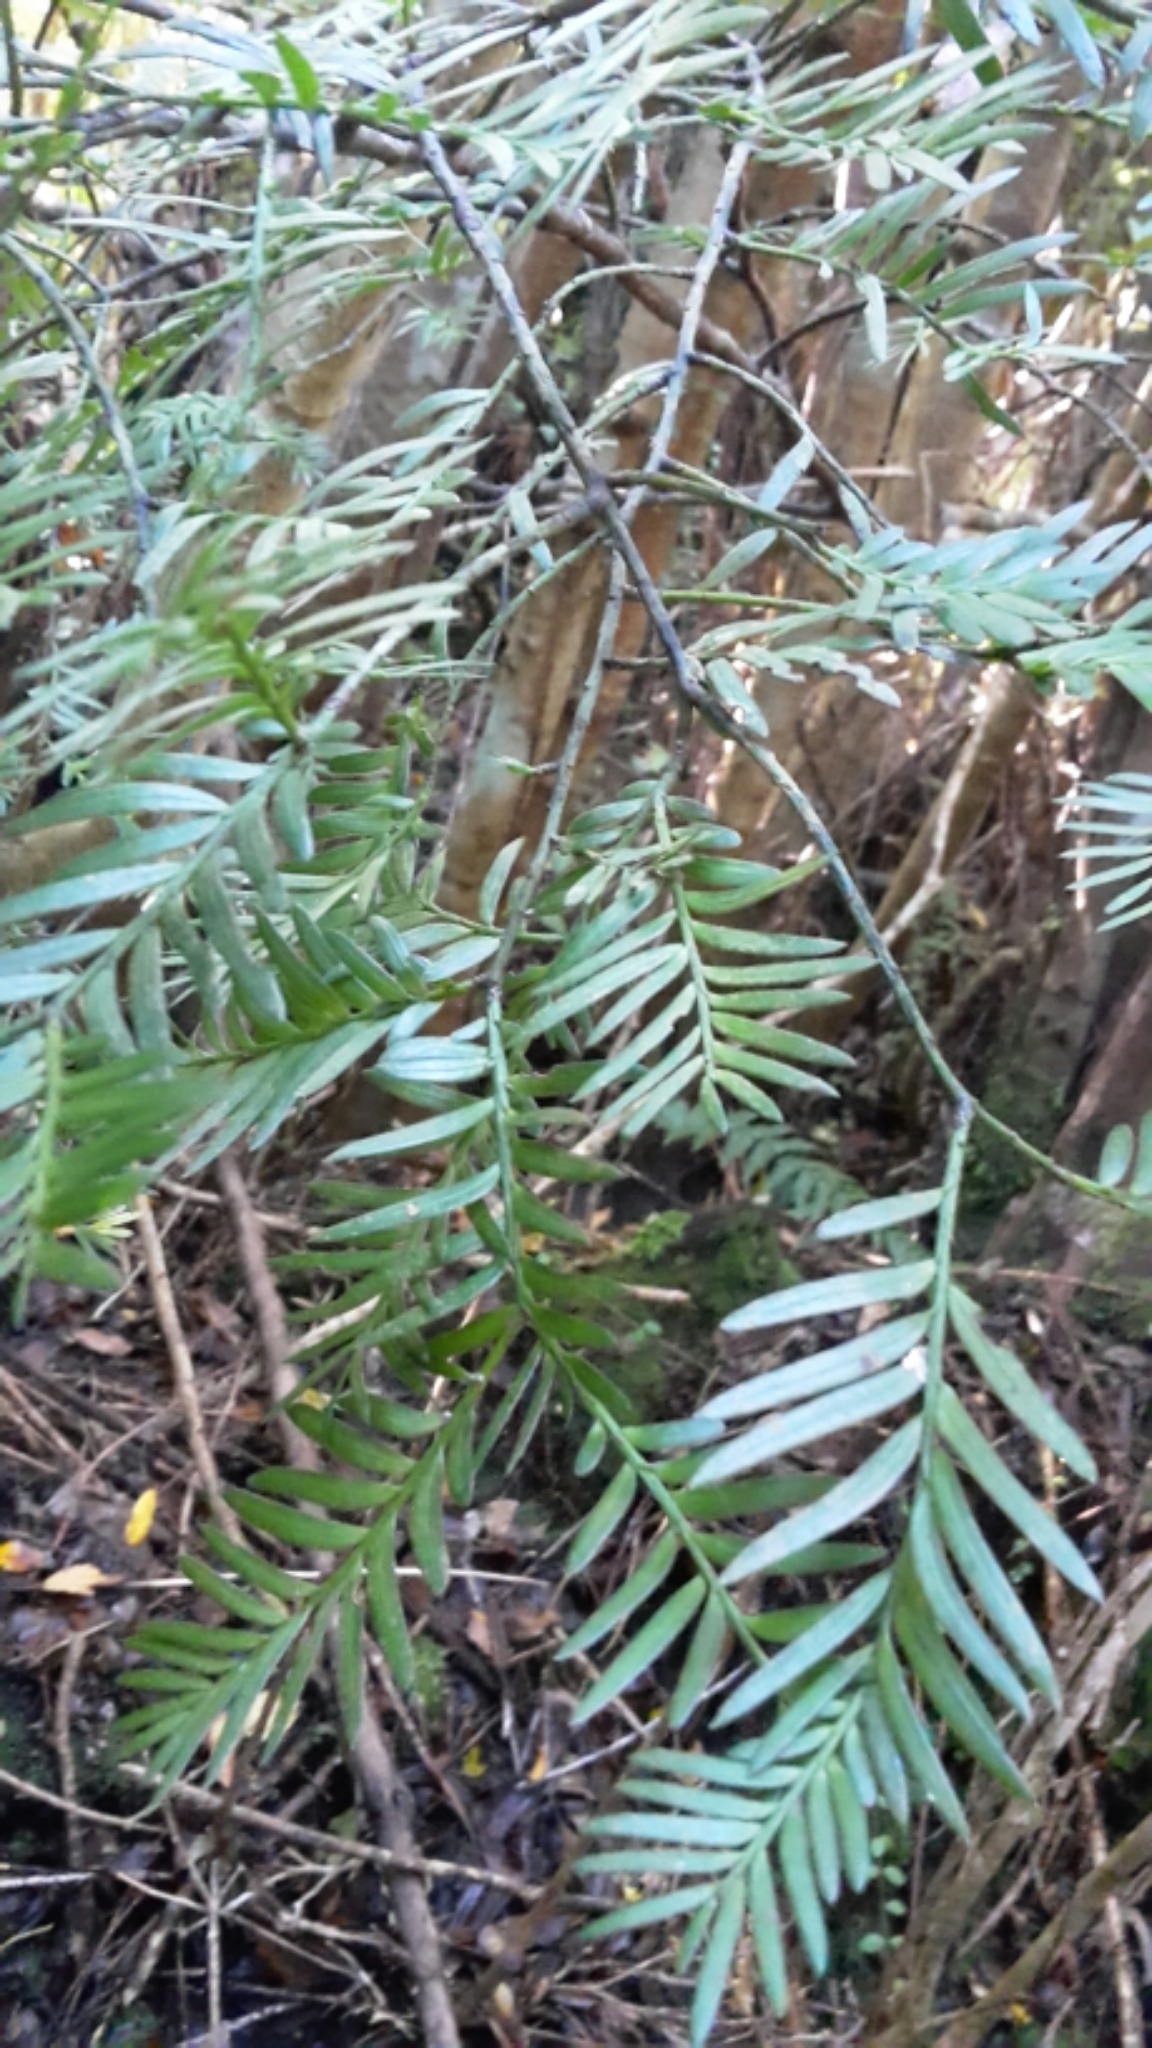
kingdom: Plantae
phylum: Tracheophyta
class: Pinopsida
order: Pinales
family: Podocarpaceae
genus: Prumnopitys
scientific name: Prumnopitys ferruginea
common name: Brown pine
